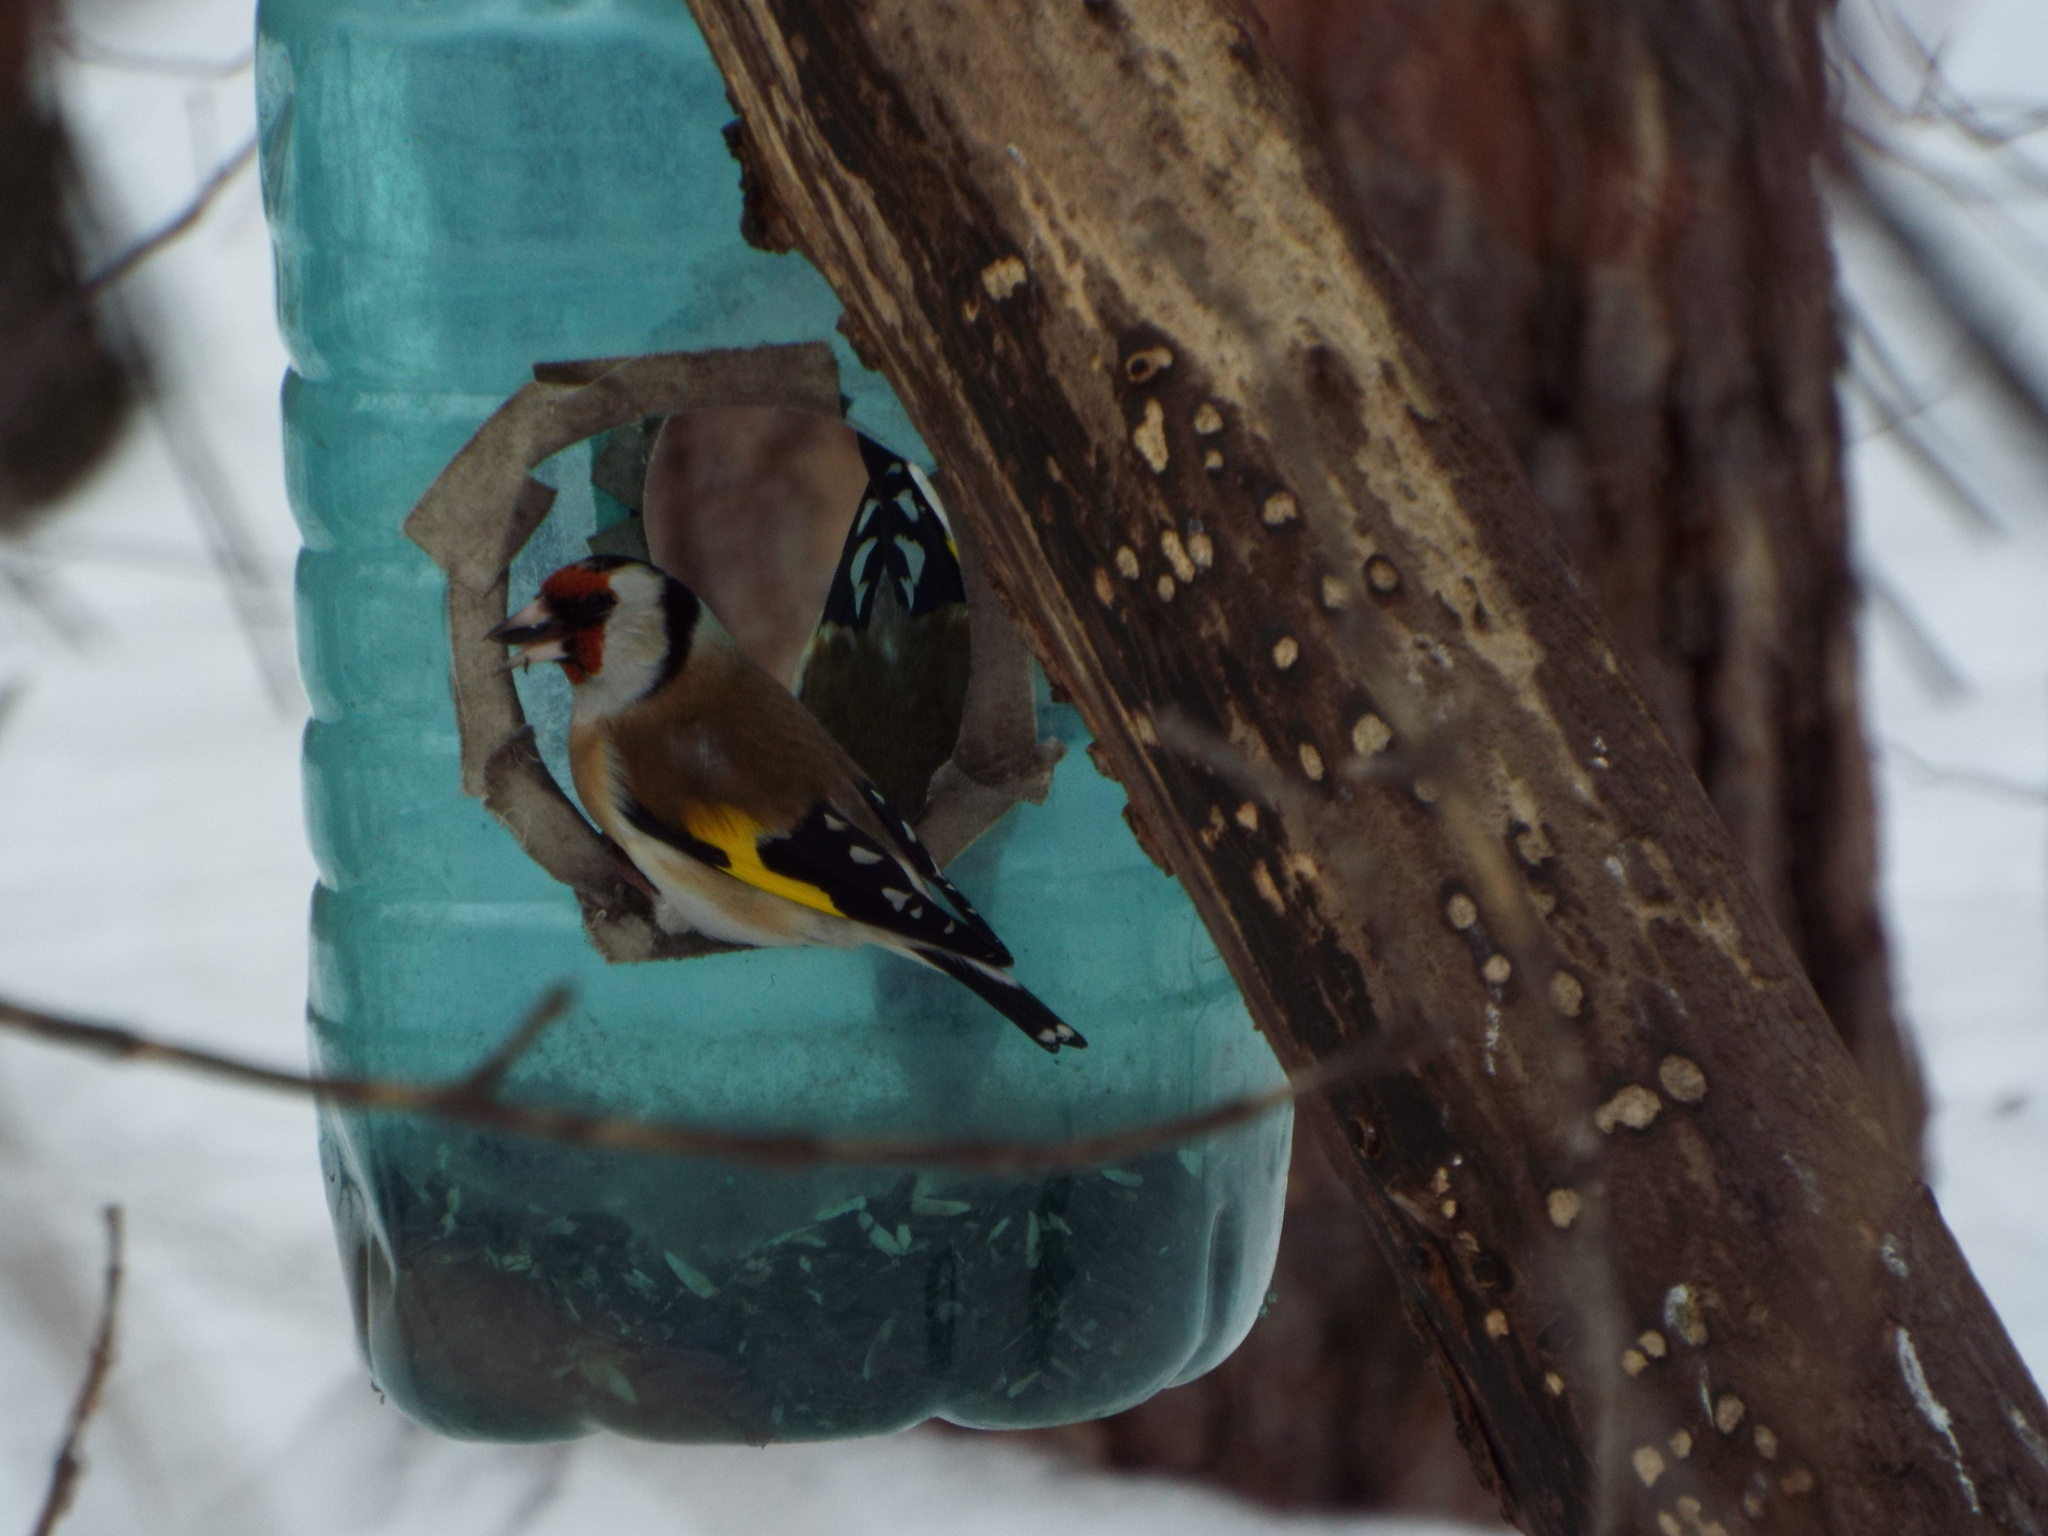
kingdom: Animalia
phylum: Chordata
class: Aves
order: Passeriformes
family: Fringillidae
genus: Carduelis
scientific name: Carduelis carduelis
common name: European goldfinch
